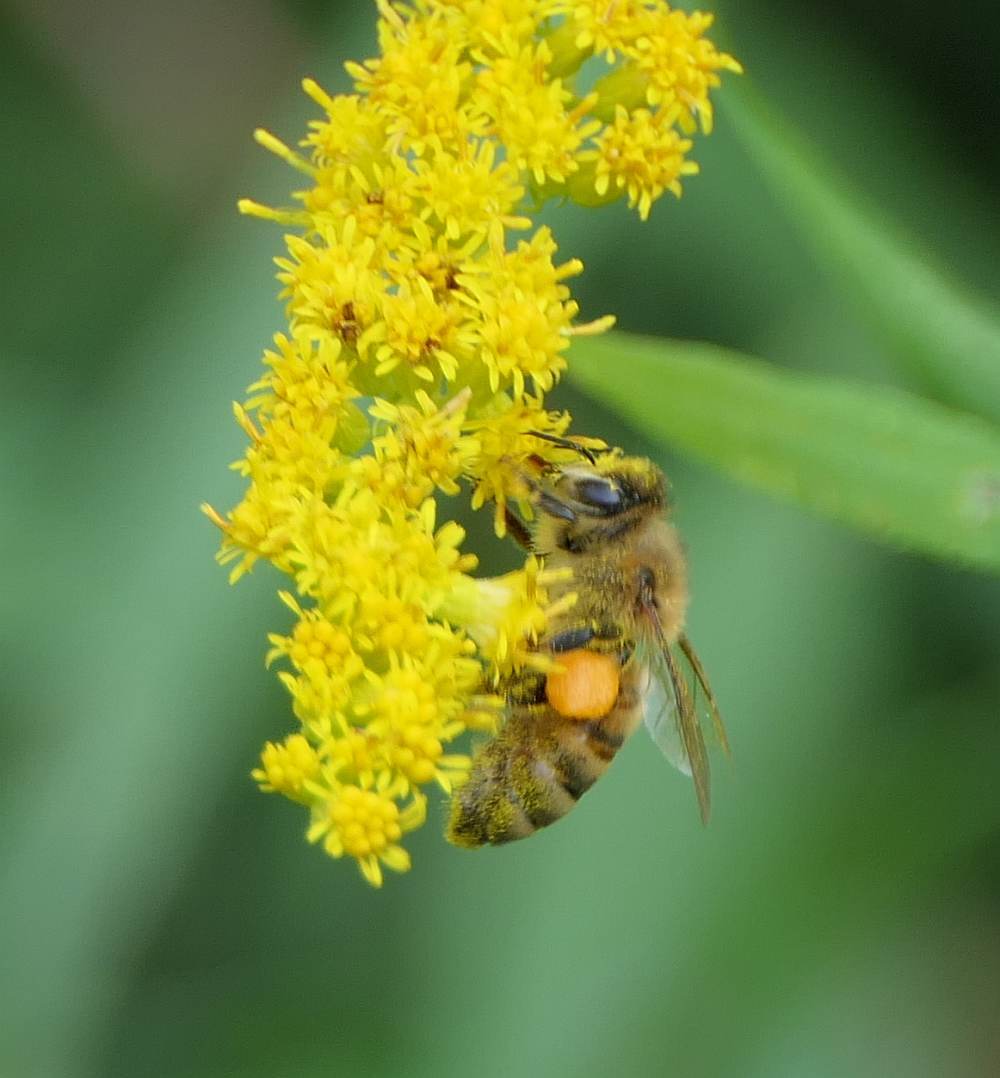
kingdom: Animalia
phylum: Arthropoda
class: Insecta
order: Hymenoptera
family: Apidae
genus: Apis
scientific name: Apis mellifera
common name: Honey bee
